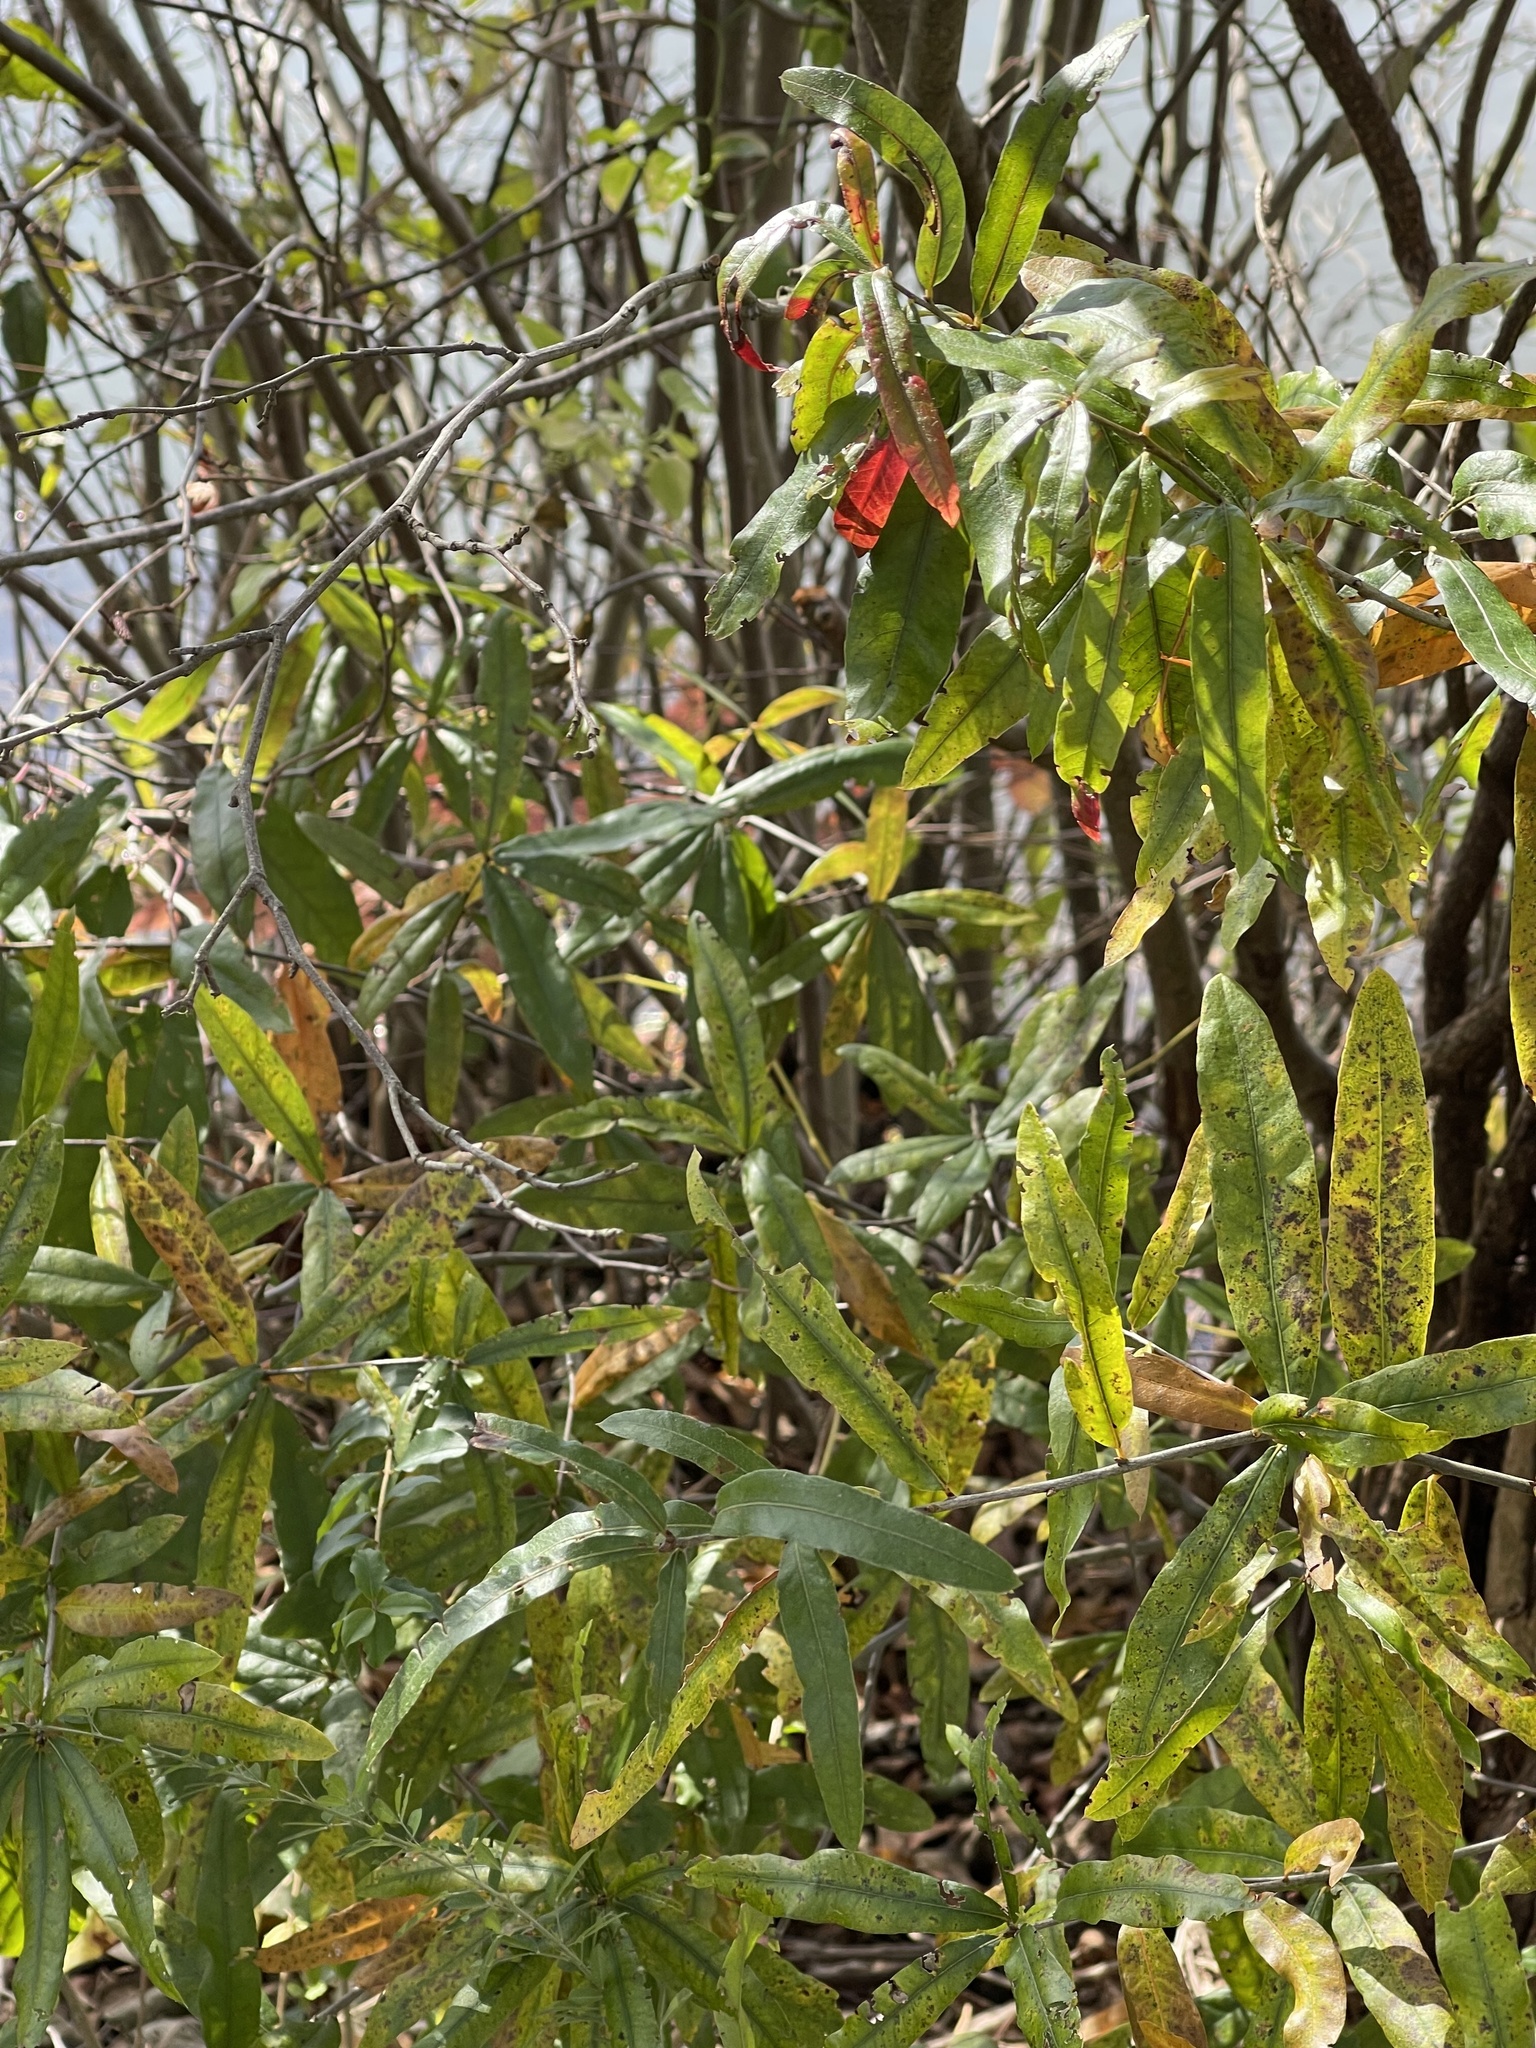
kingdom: Plantae
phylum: Tracheophyta
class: Magnoliopsida
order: Fagales
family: Fagaceae
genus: Quercus
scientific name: Quercus phellos
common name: Willow oak
